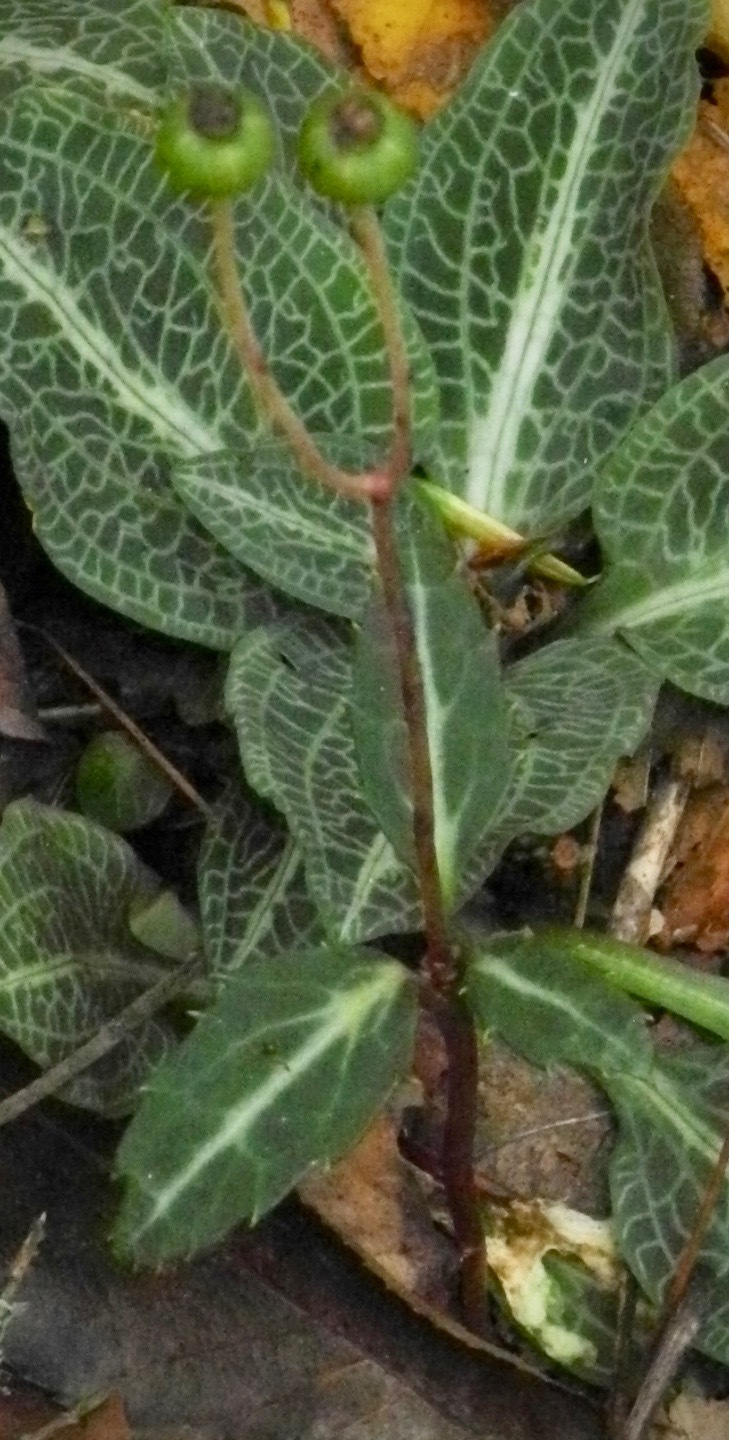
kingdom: Plantae
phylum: Tracheophyta
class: Magnoliopsida
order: Ericales
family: Ericaceae
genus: Chimaphila
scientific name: Chimaphila maculata
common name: Spotted pipsissewa
